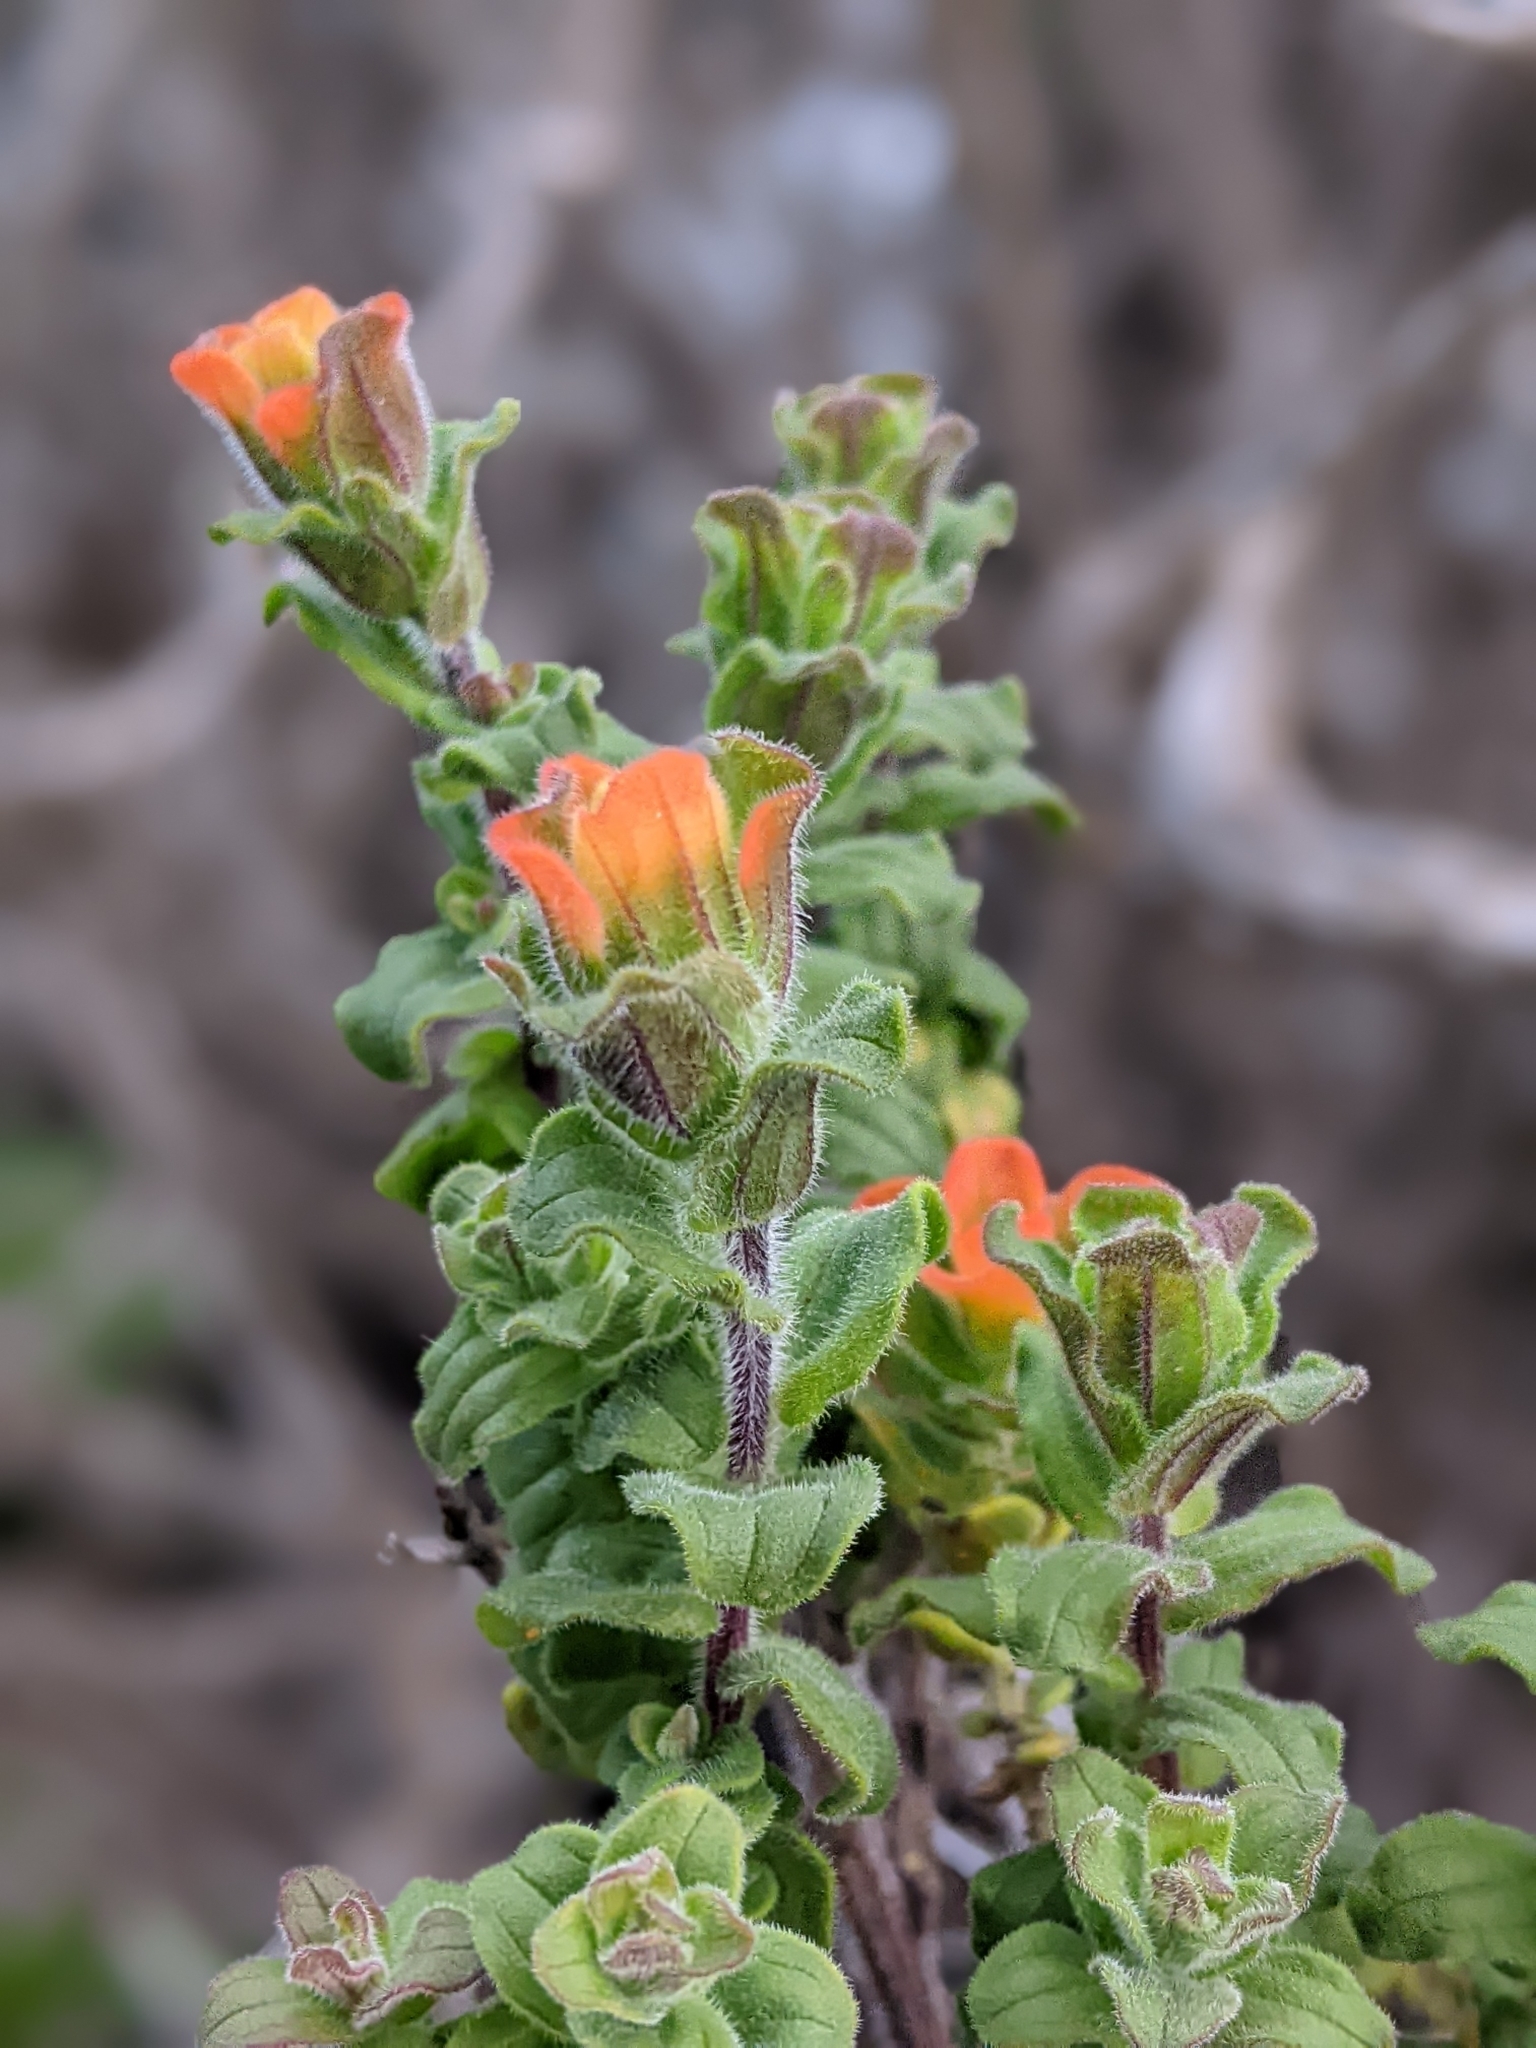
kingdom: Plantae
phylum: Tracheophyta
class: Magnoliopsida
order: Lamiales
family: Orobanchaceae
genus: Castilleja
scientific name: Castilleja latifolia
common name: Monterey indian paintbrush
